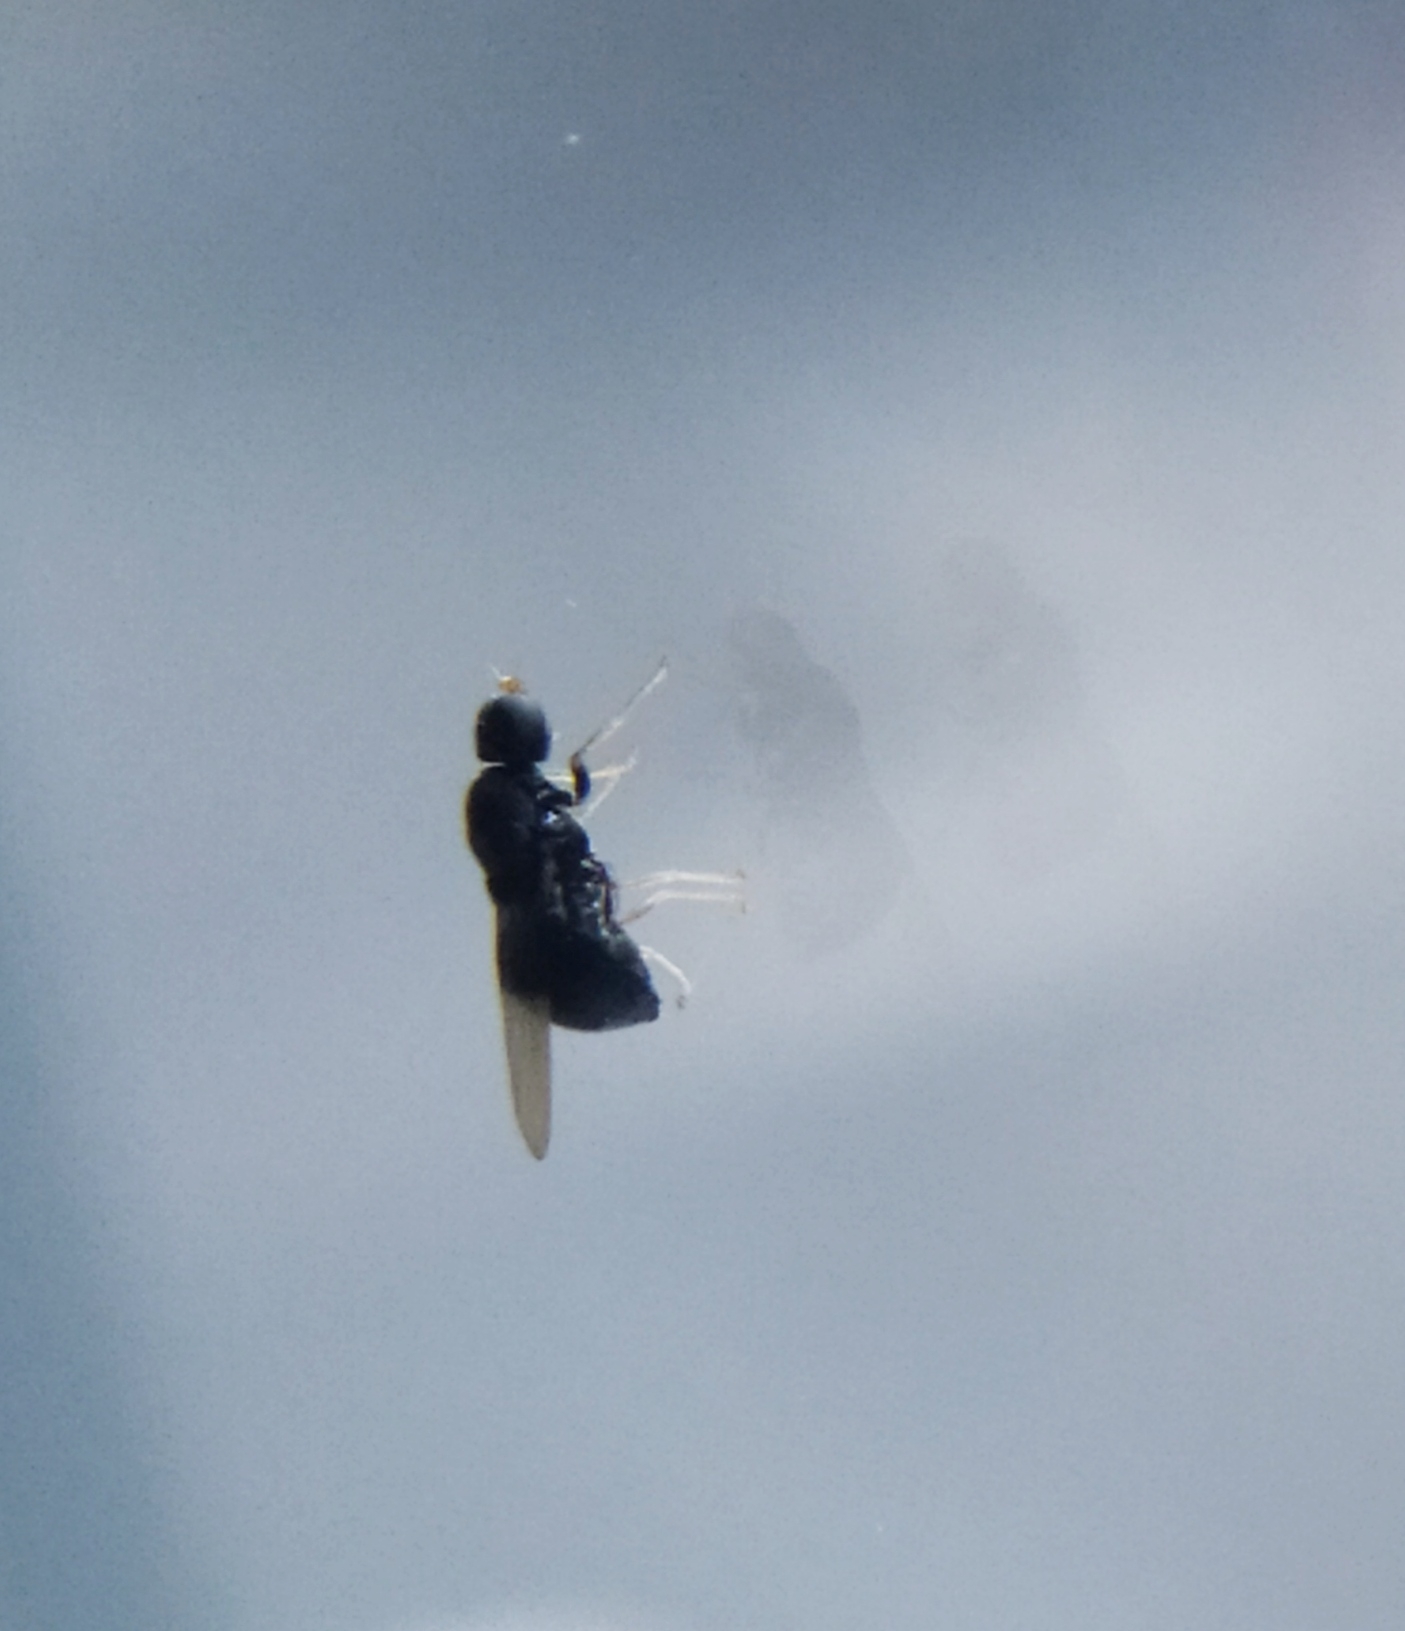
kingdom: Animalia
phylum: Arthropoda
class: Insecta
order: Diptera
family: Stratiomyidae
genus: Pachygaster
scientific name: Pachygaster atra
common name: Dark-winged black
